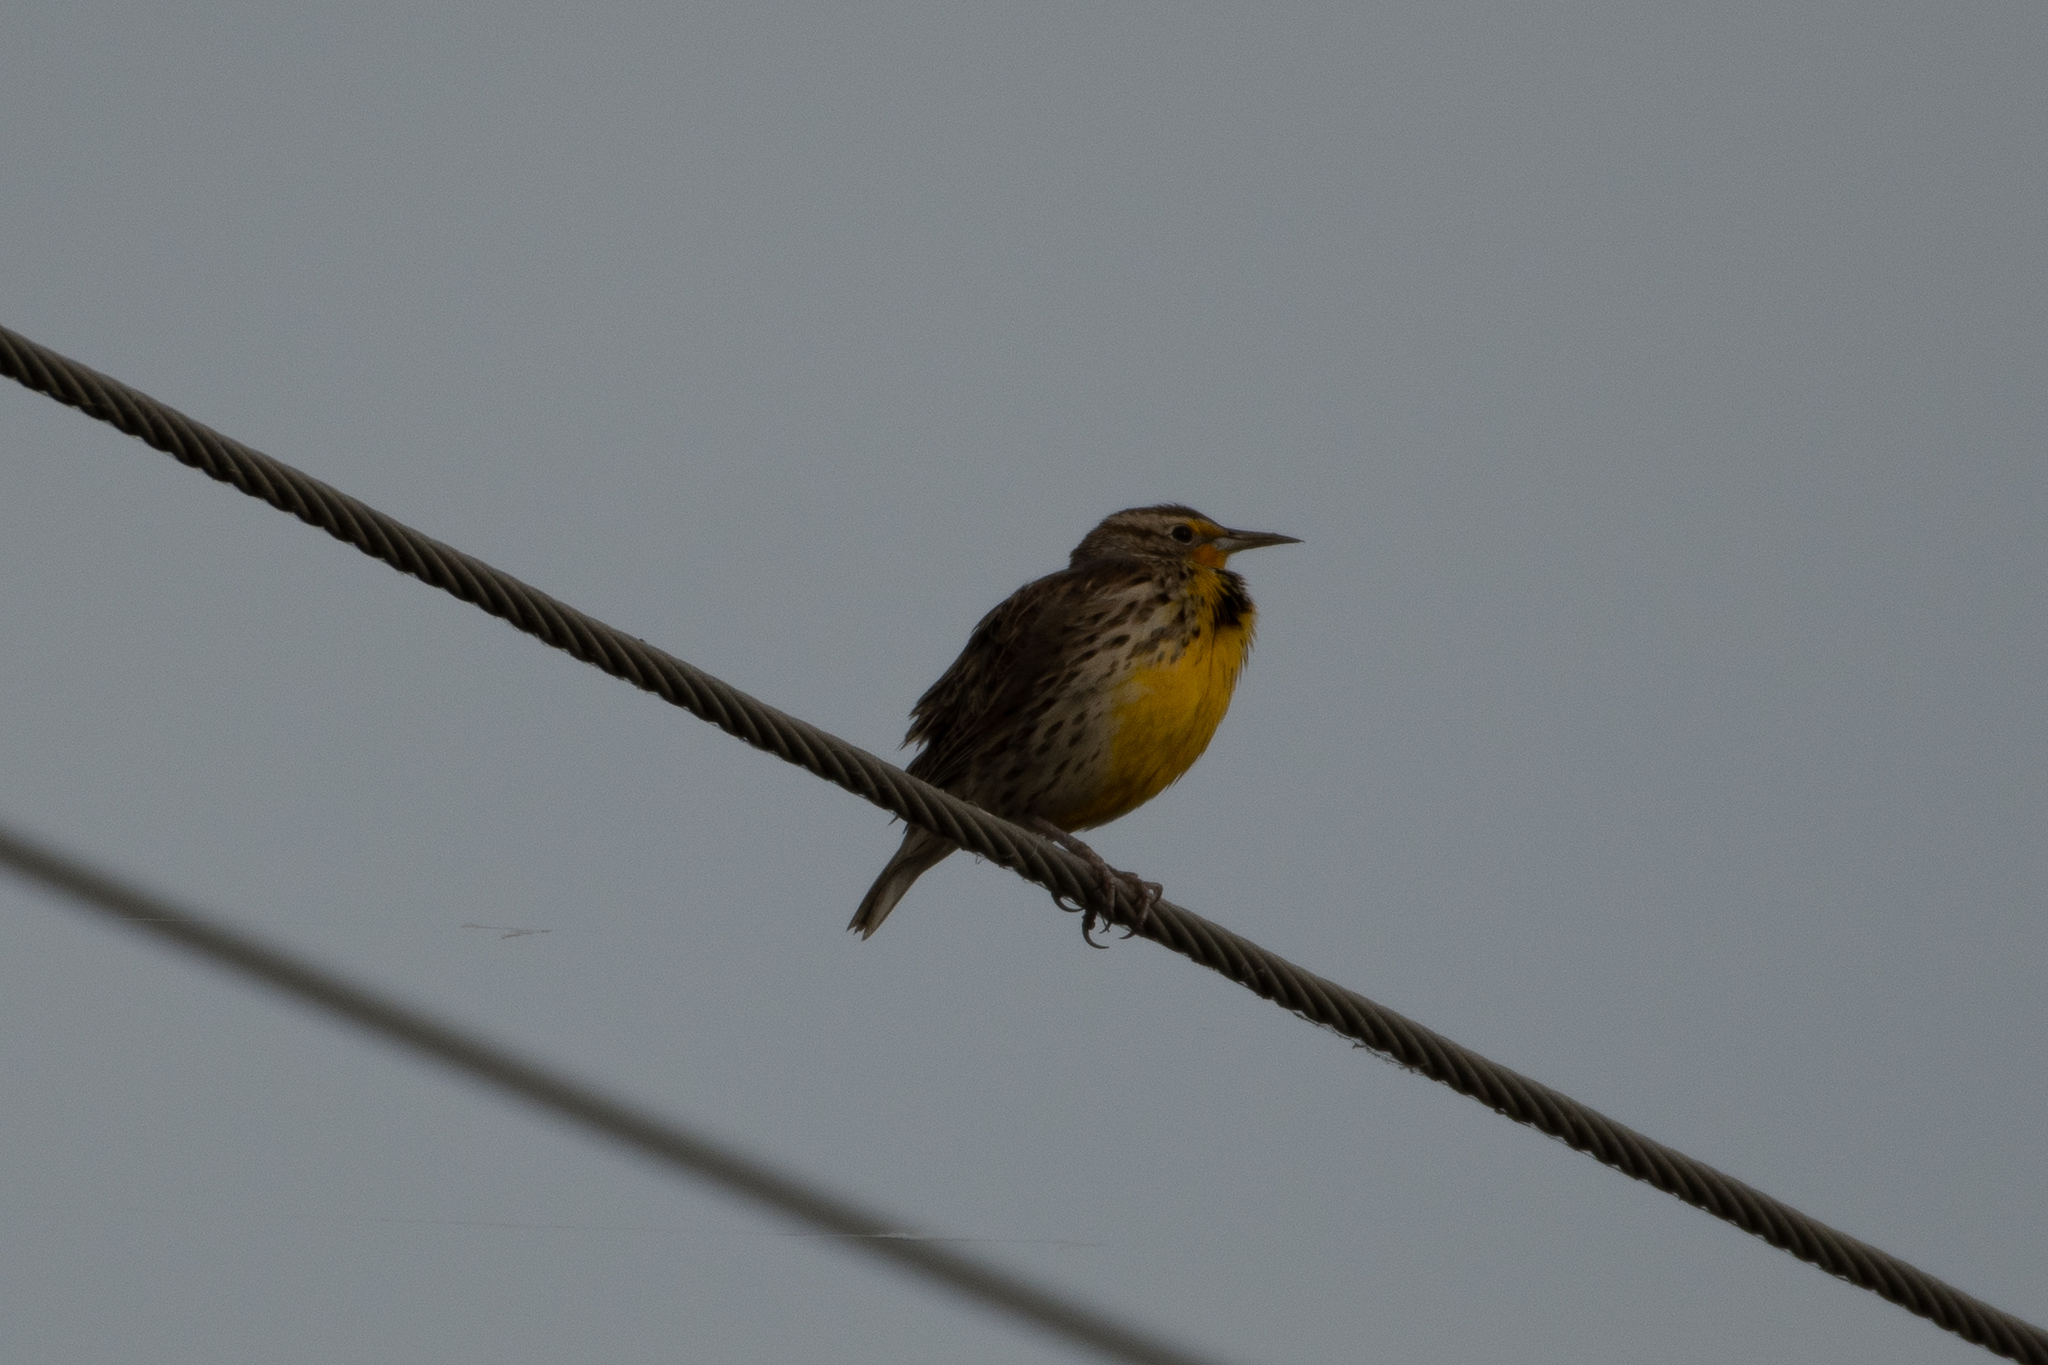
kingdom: Animalia
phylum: Chordata
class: Aves
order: Passeriformes
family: Icteridae
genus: Sturnella
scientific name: Sturnella neglecta
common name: Western meadowlark
